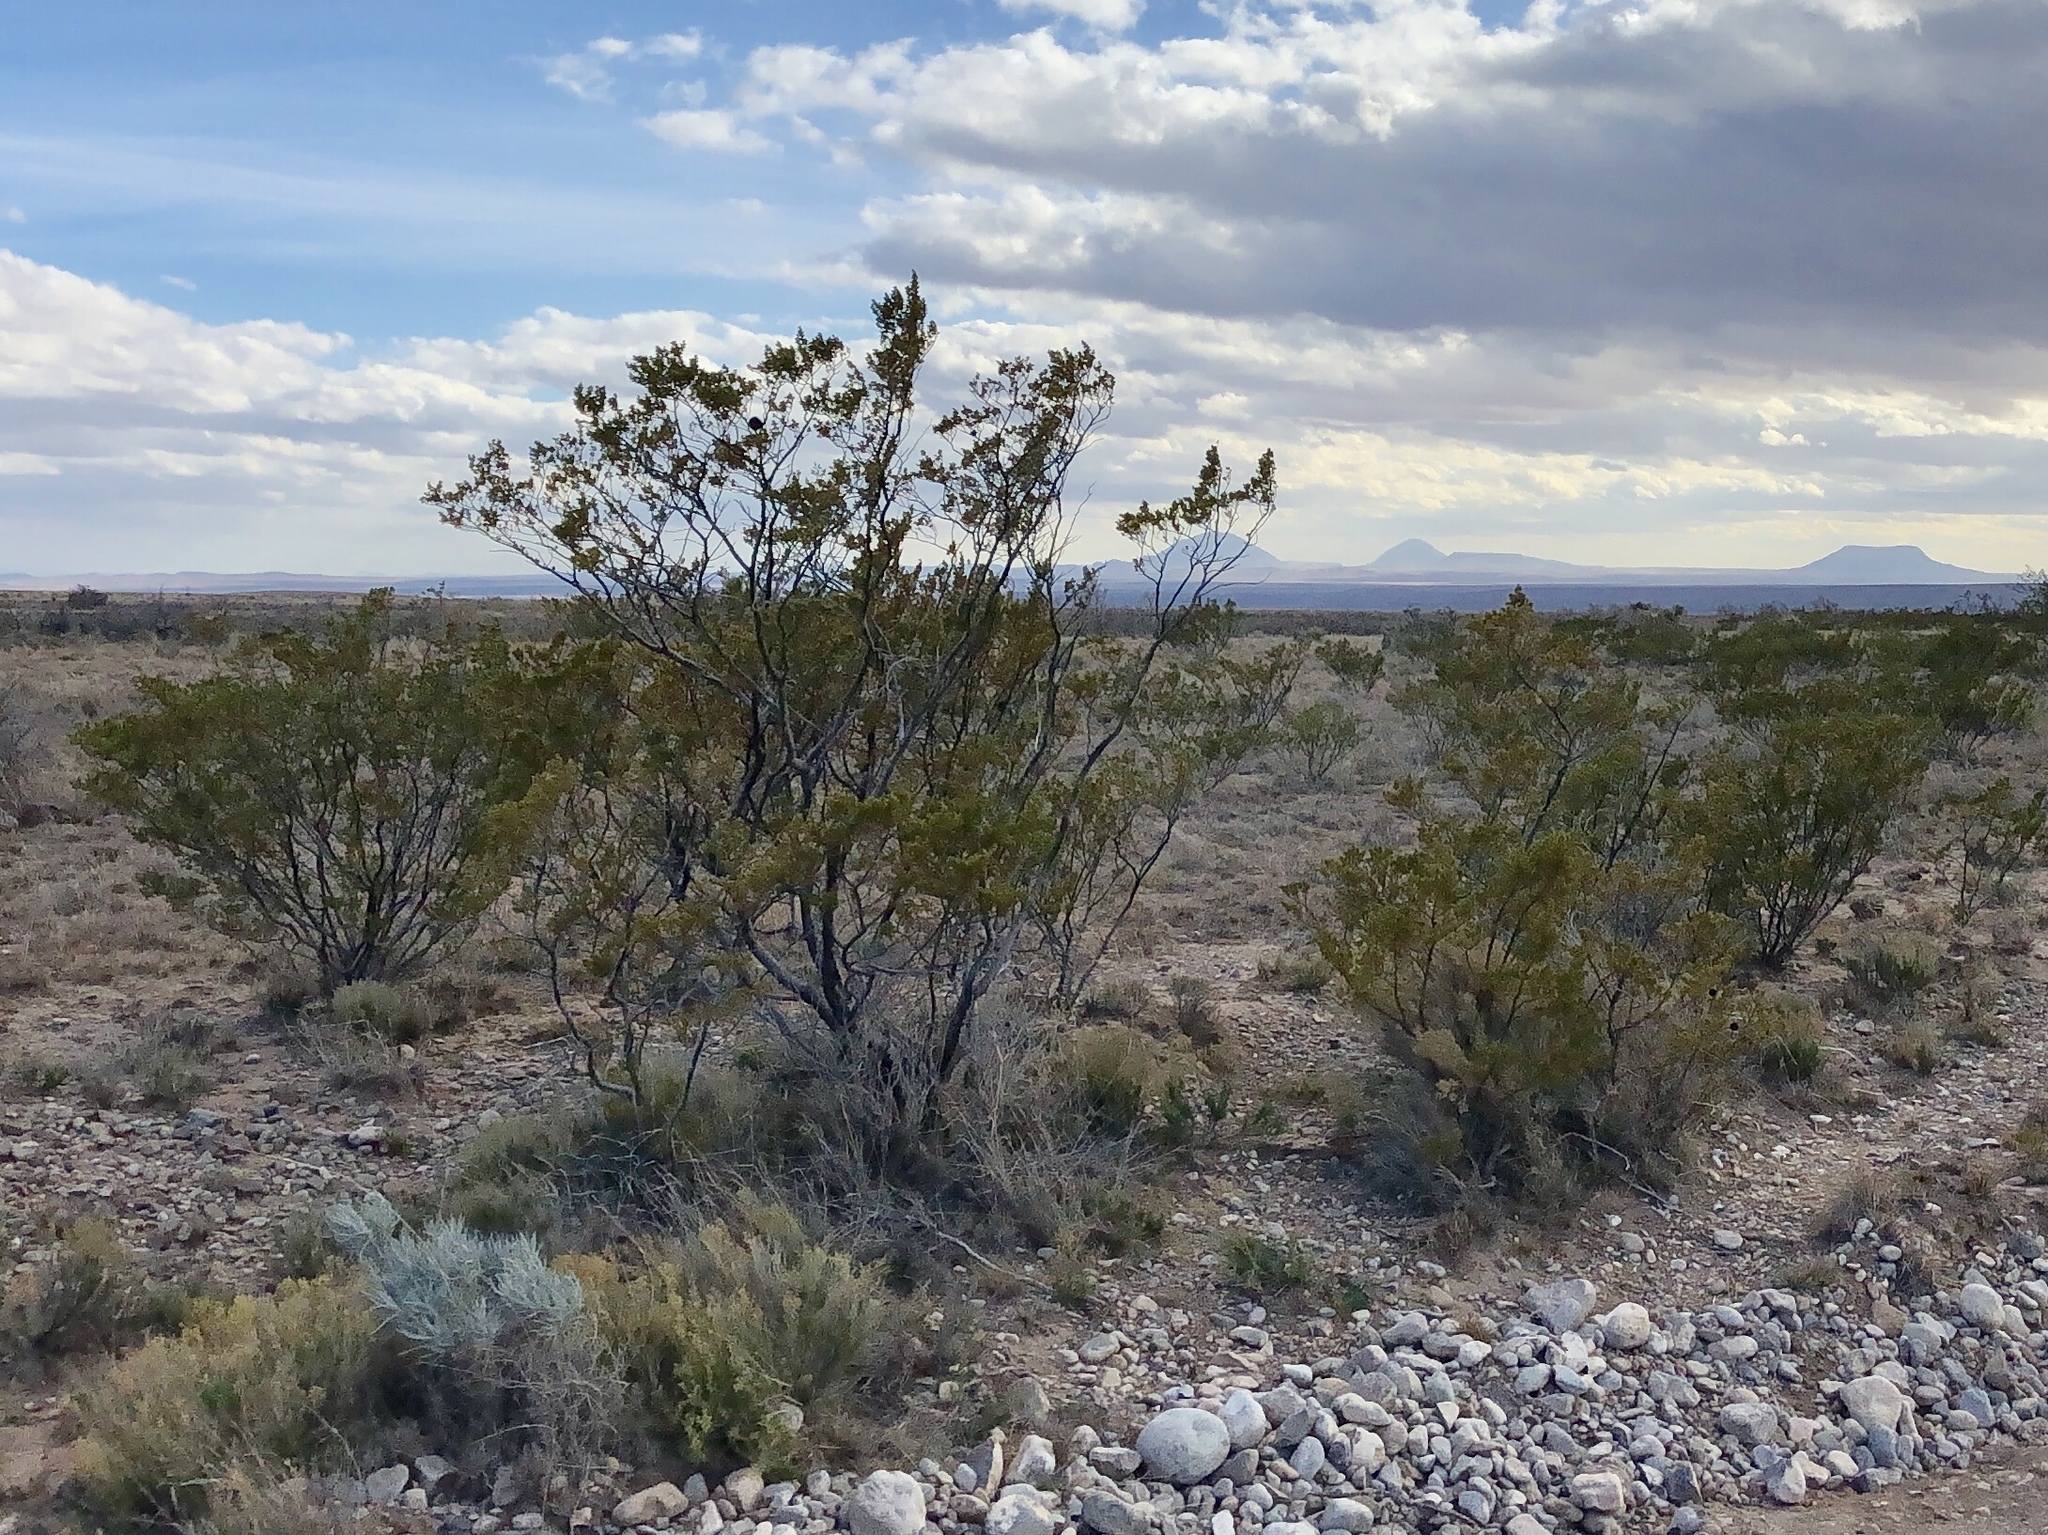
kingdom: Plantae
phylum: Tracheophyta
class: Magnoliopsida
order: Zygophyllales
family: Zygophyllaceae
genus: Larrea
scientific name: Larrea tridentata
